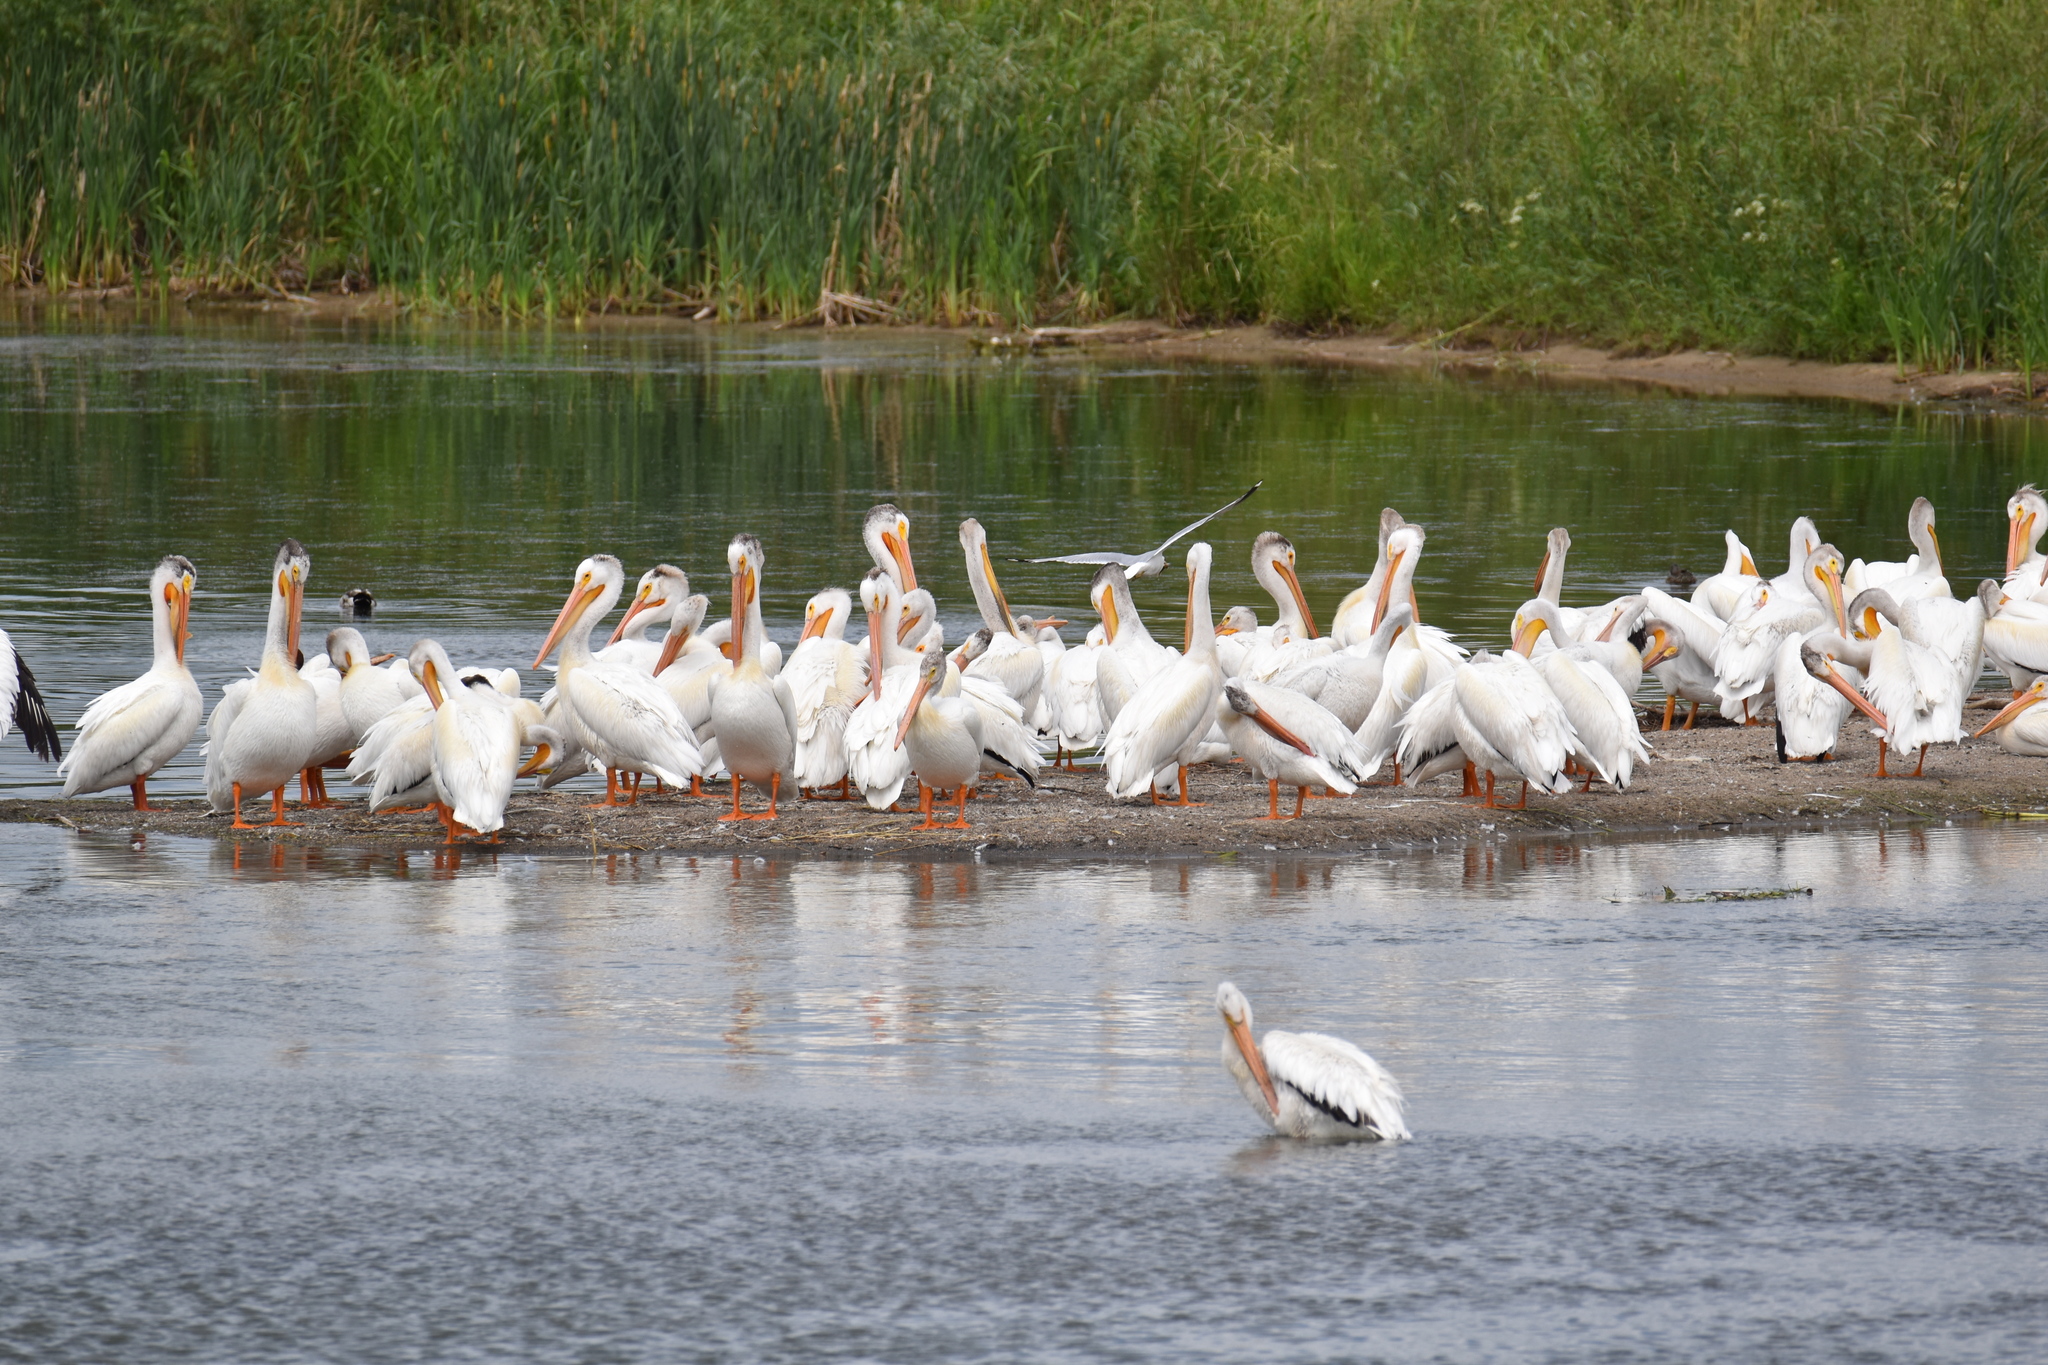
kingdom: Animalia
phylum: Chordata
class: Aves
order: Pelecaniformes
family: Pelecanidae
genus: Pelecanus
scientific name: Pelecanus erythrorhynchos
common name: American white pelican
